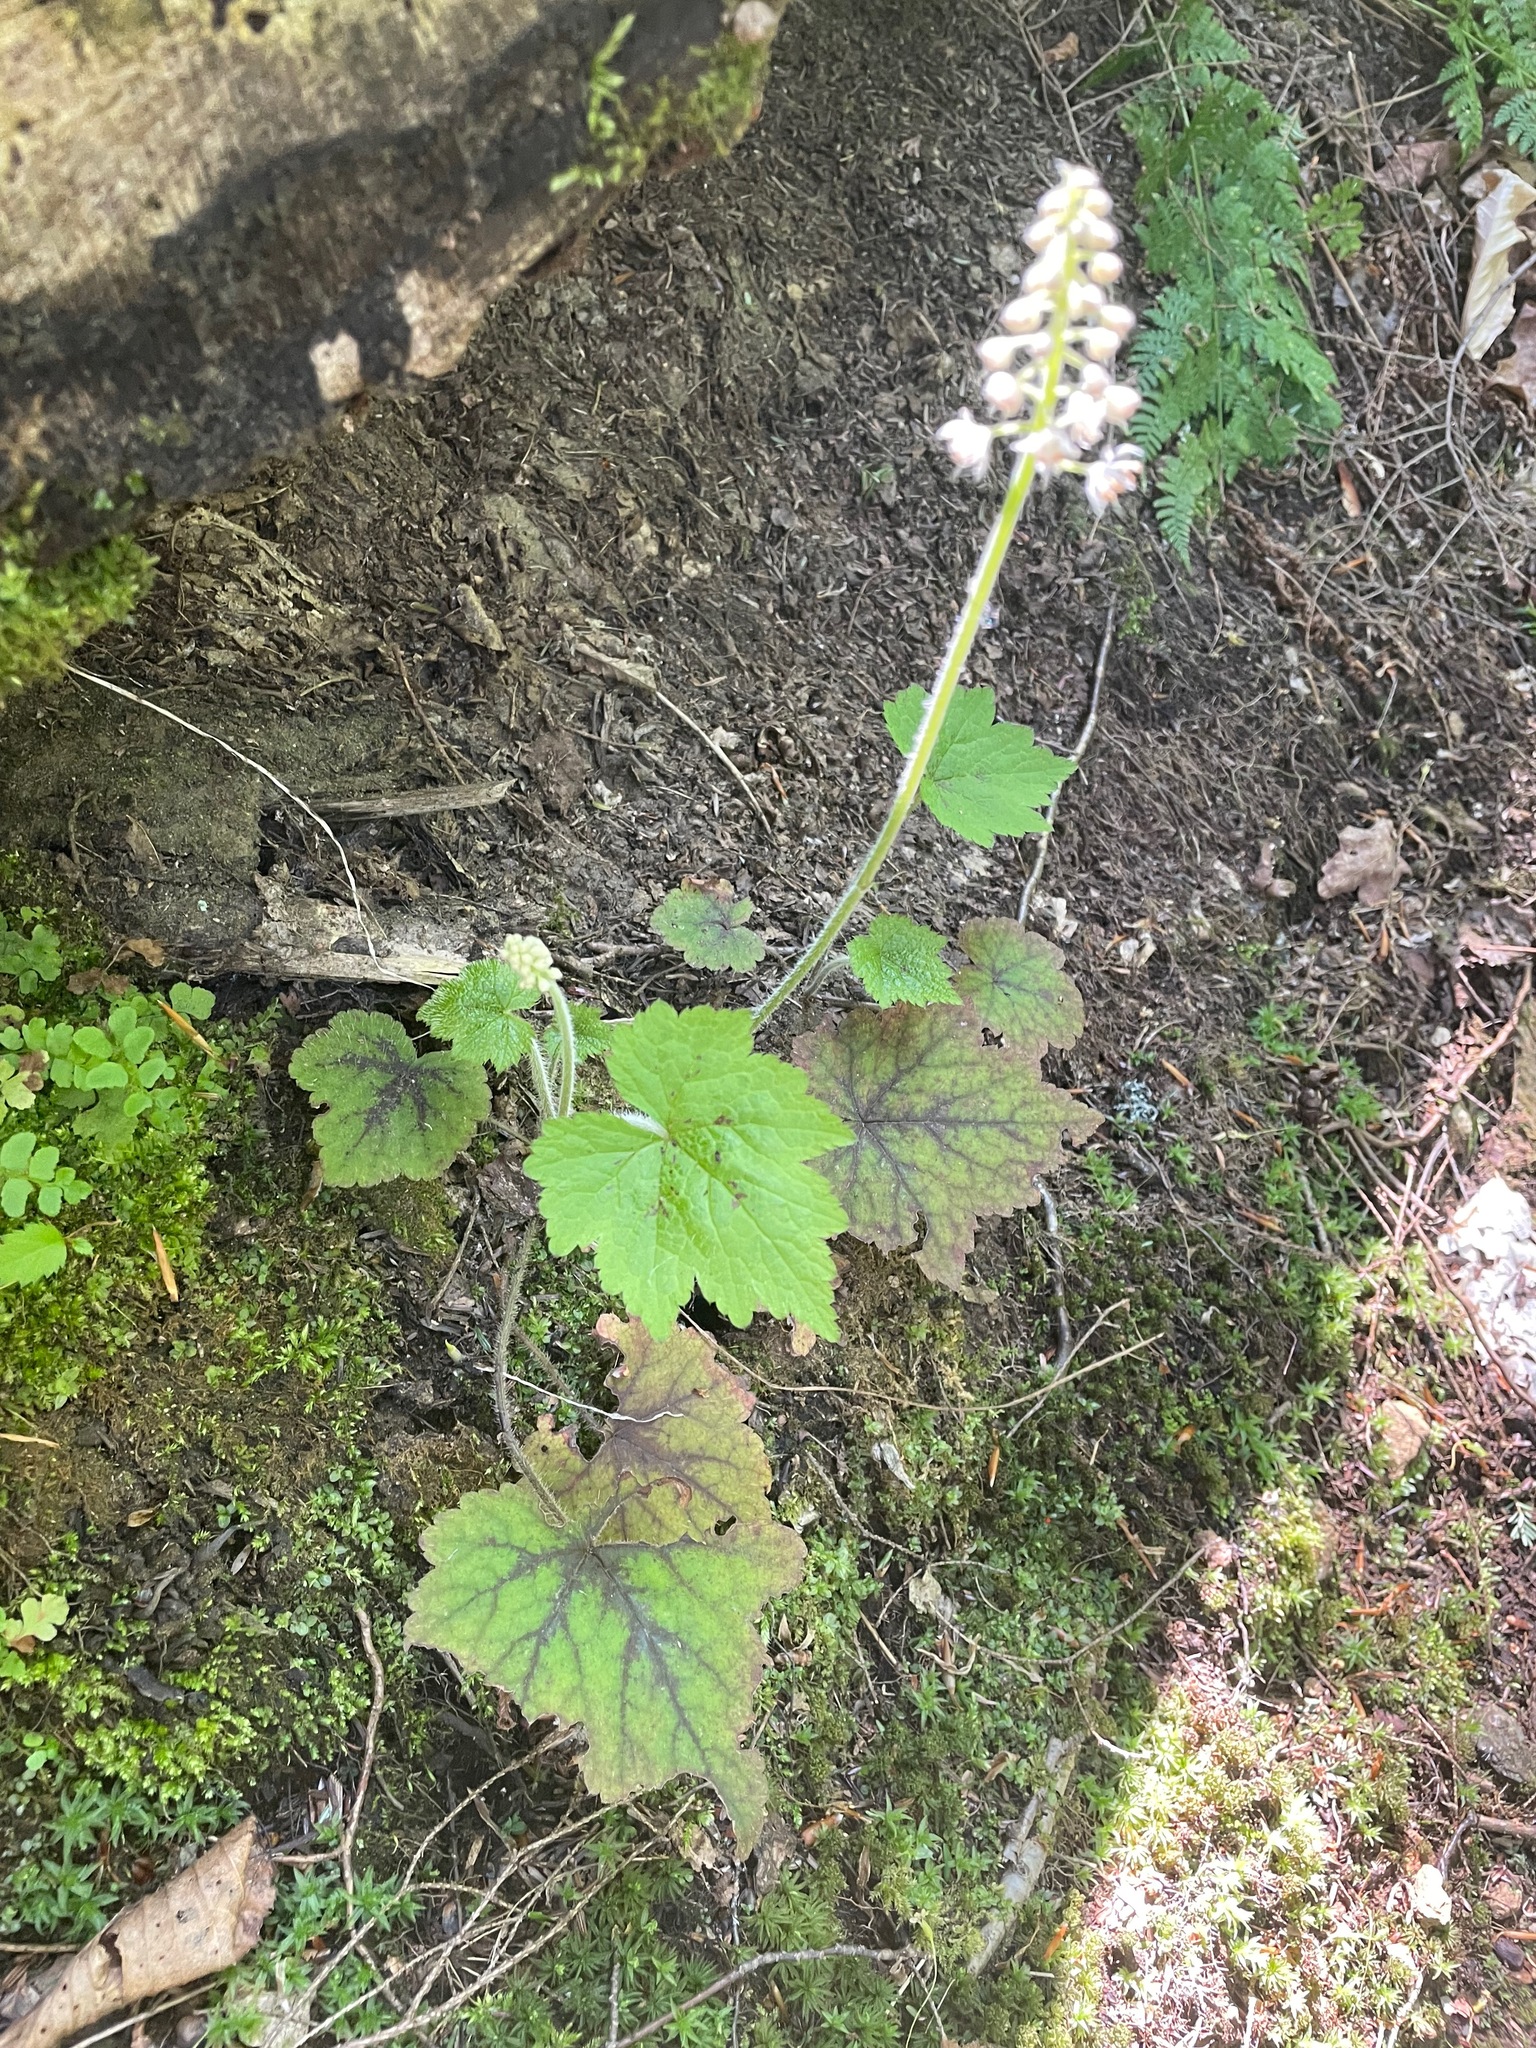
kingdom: Plantae
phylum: Tracheophyta
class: Magnoliopsida
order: Saxifragales
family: Saxifragaceae
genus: Tiarella
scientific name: Tiarella stolonifera
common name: Stoloniferous foamflower
